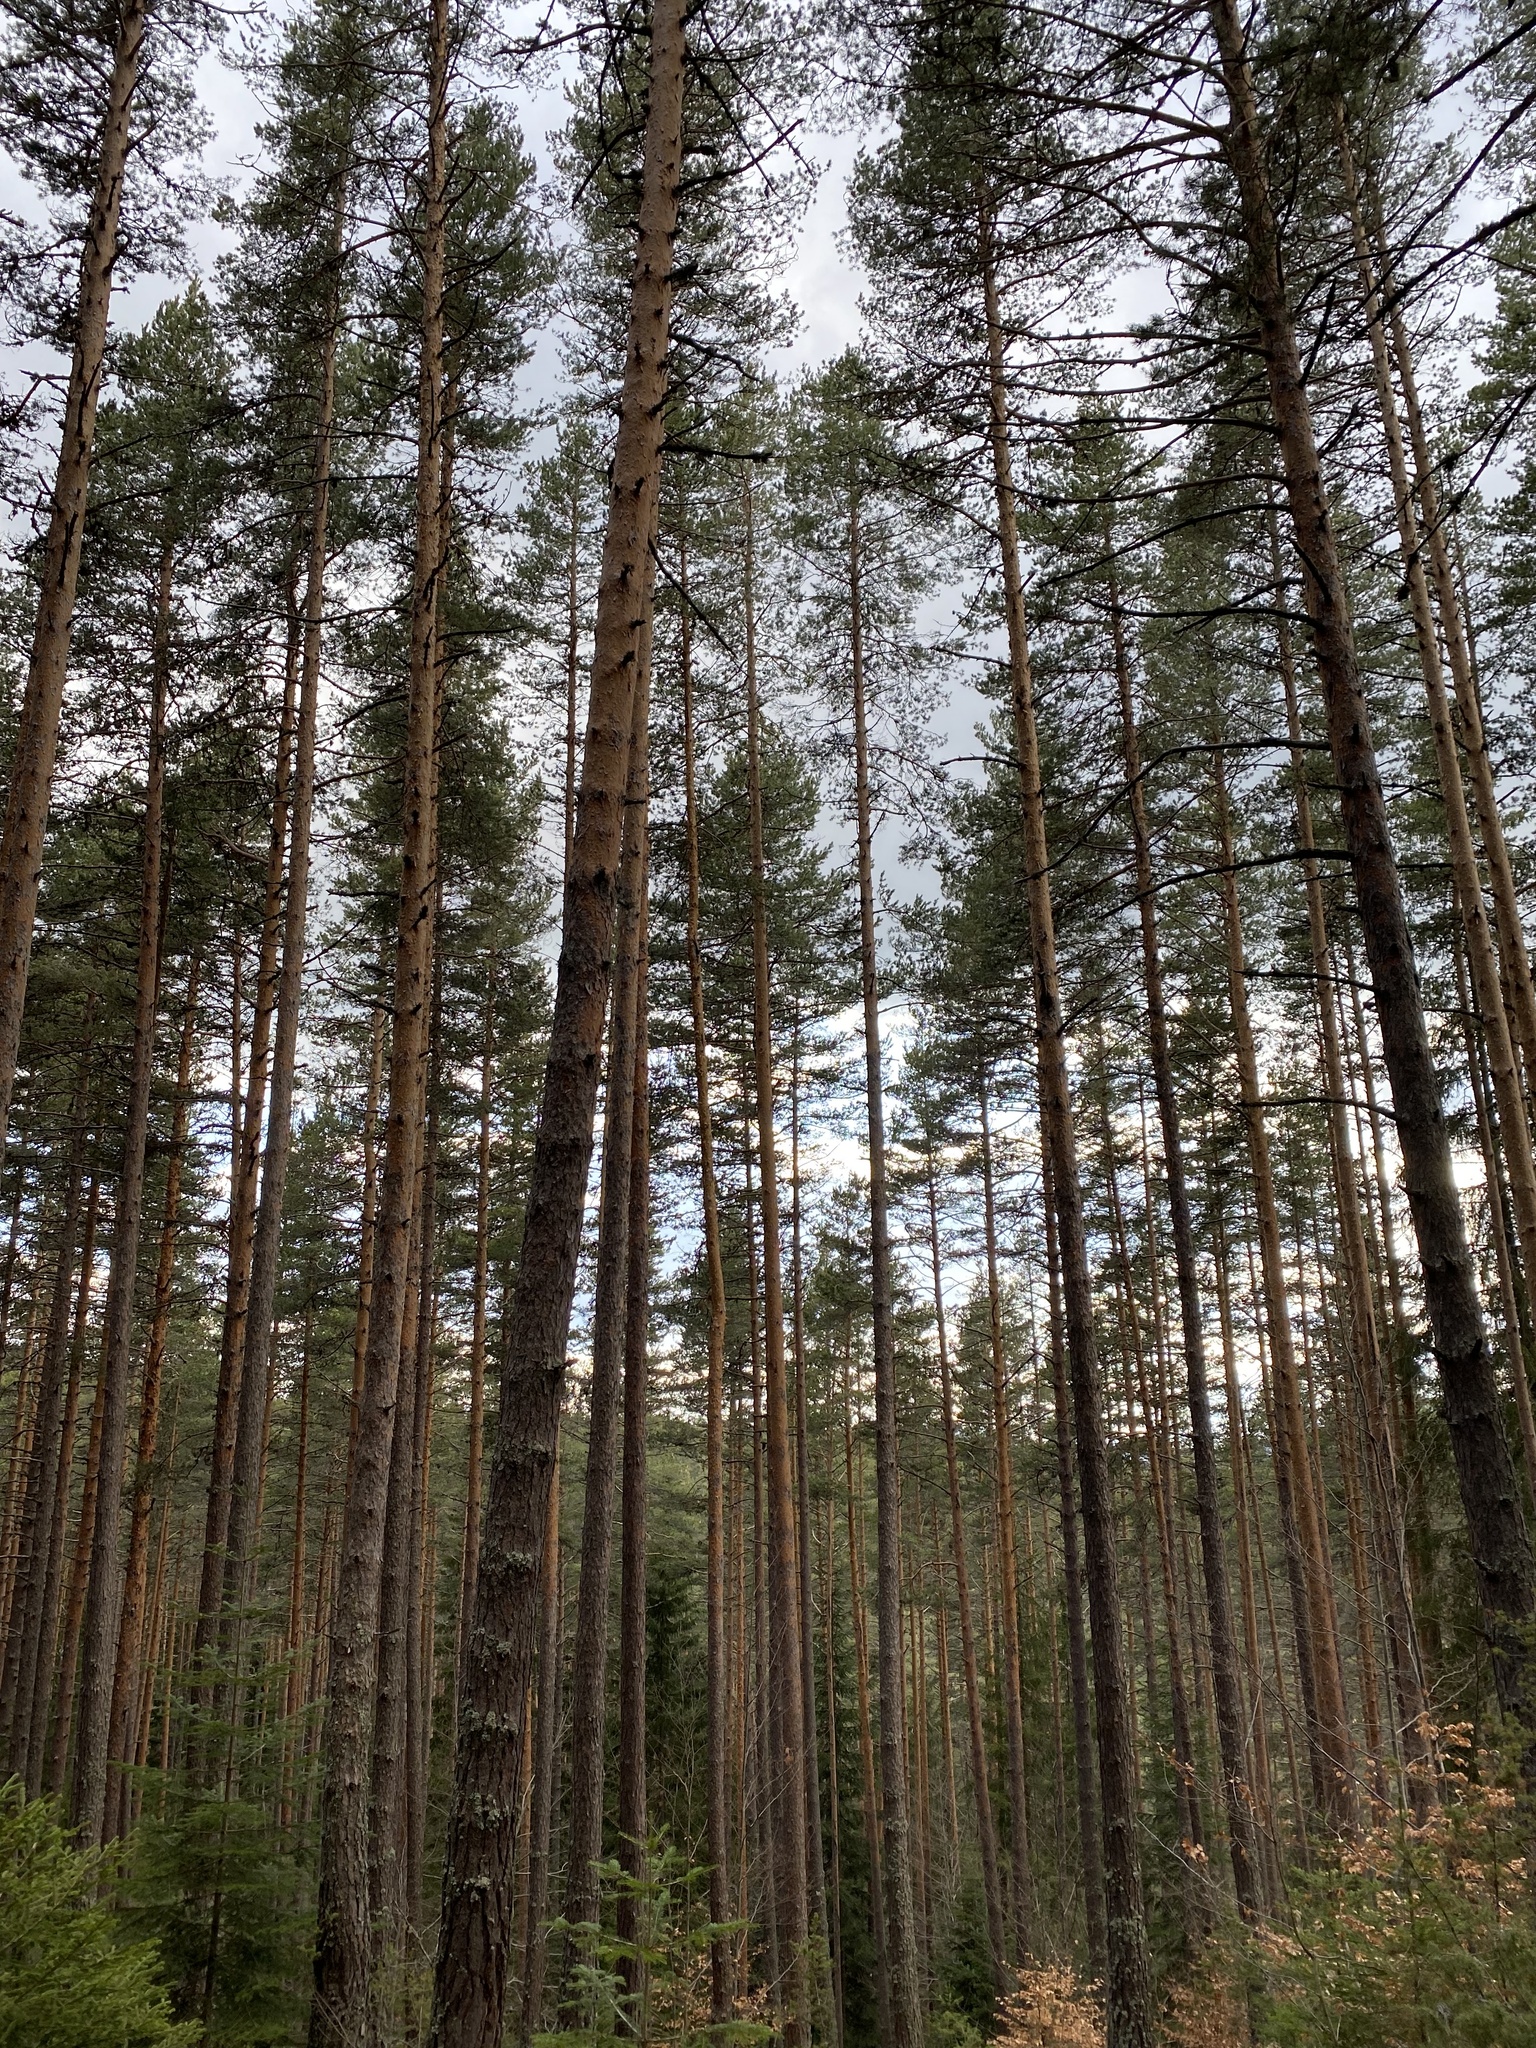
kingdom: Plantae
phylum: Tracheophyta
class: Pinopsida
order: Pinales
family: Pinaceae
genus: Pinus
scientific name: Pinus sylvestris
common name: Scots pine
